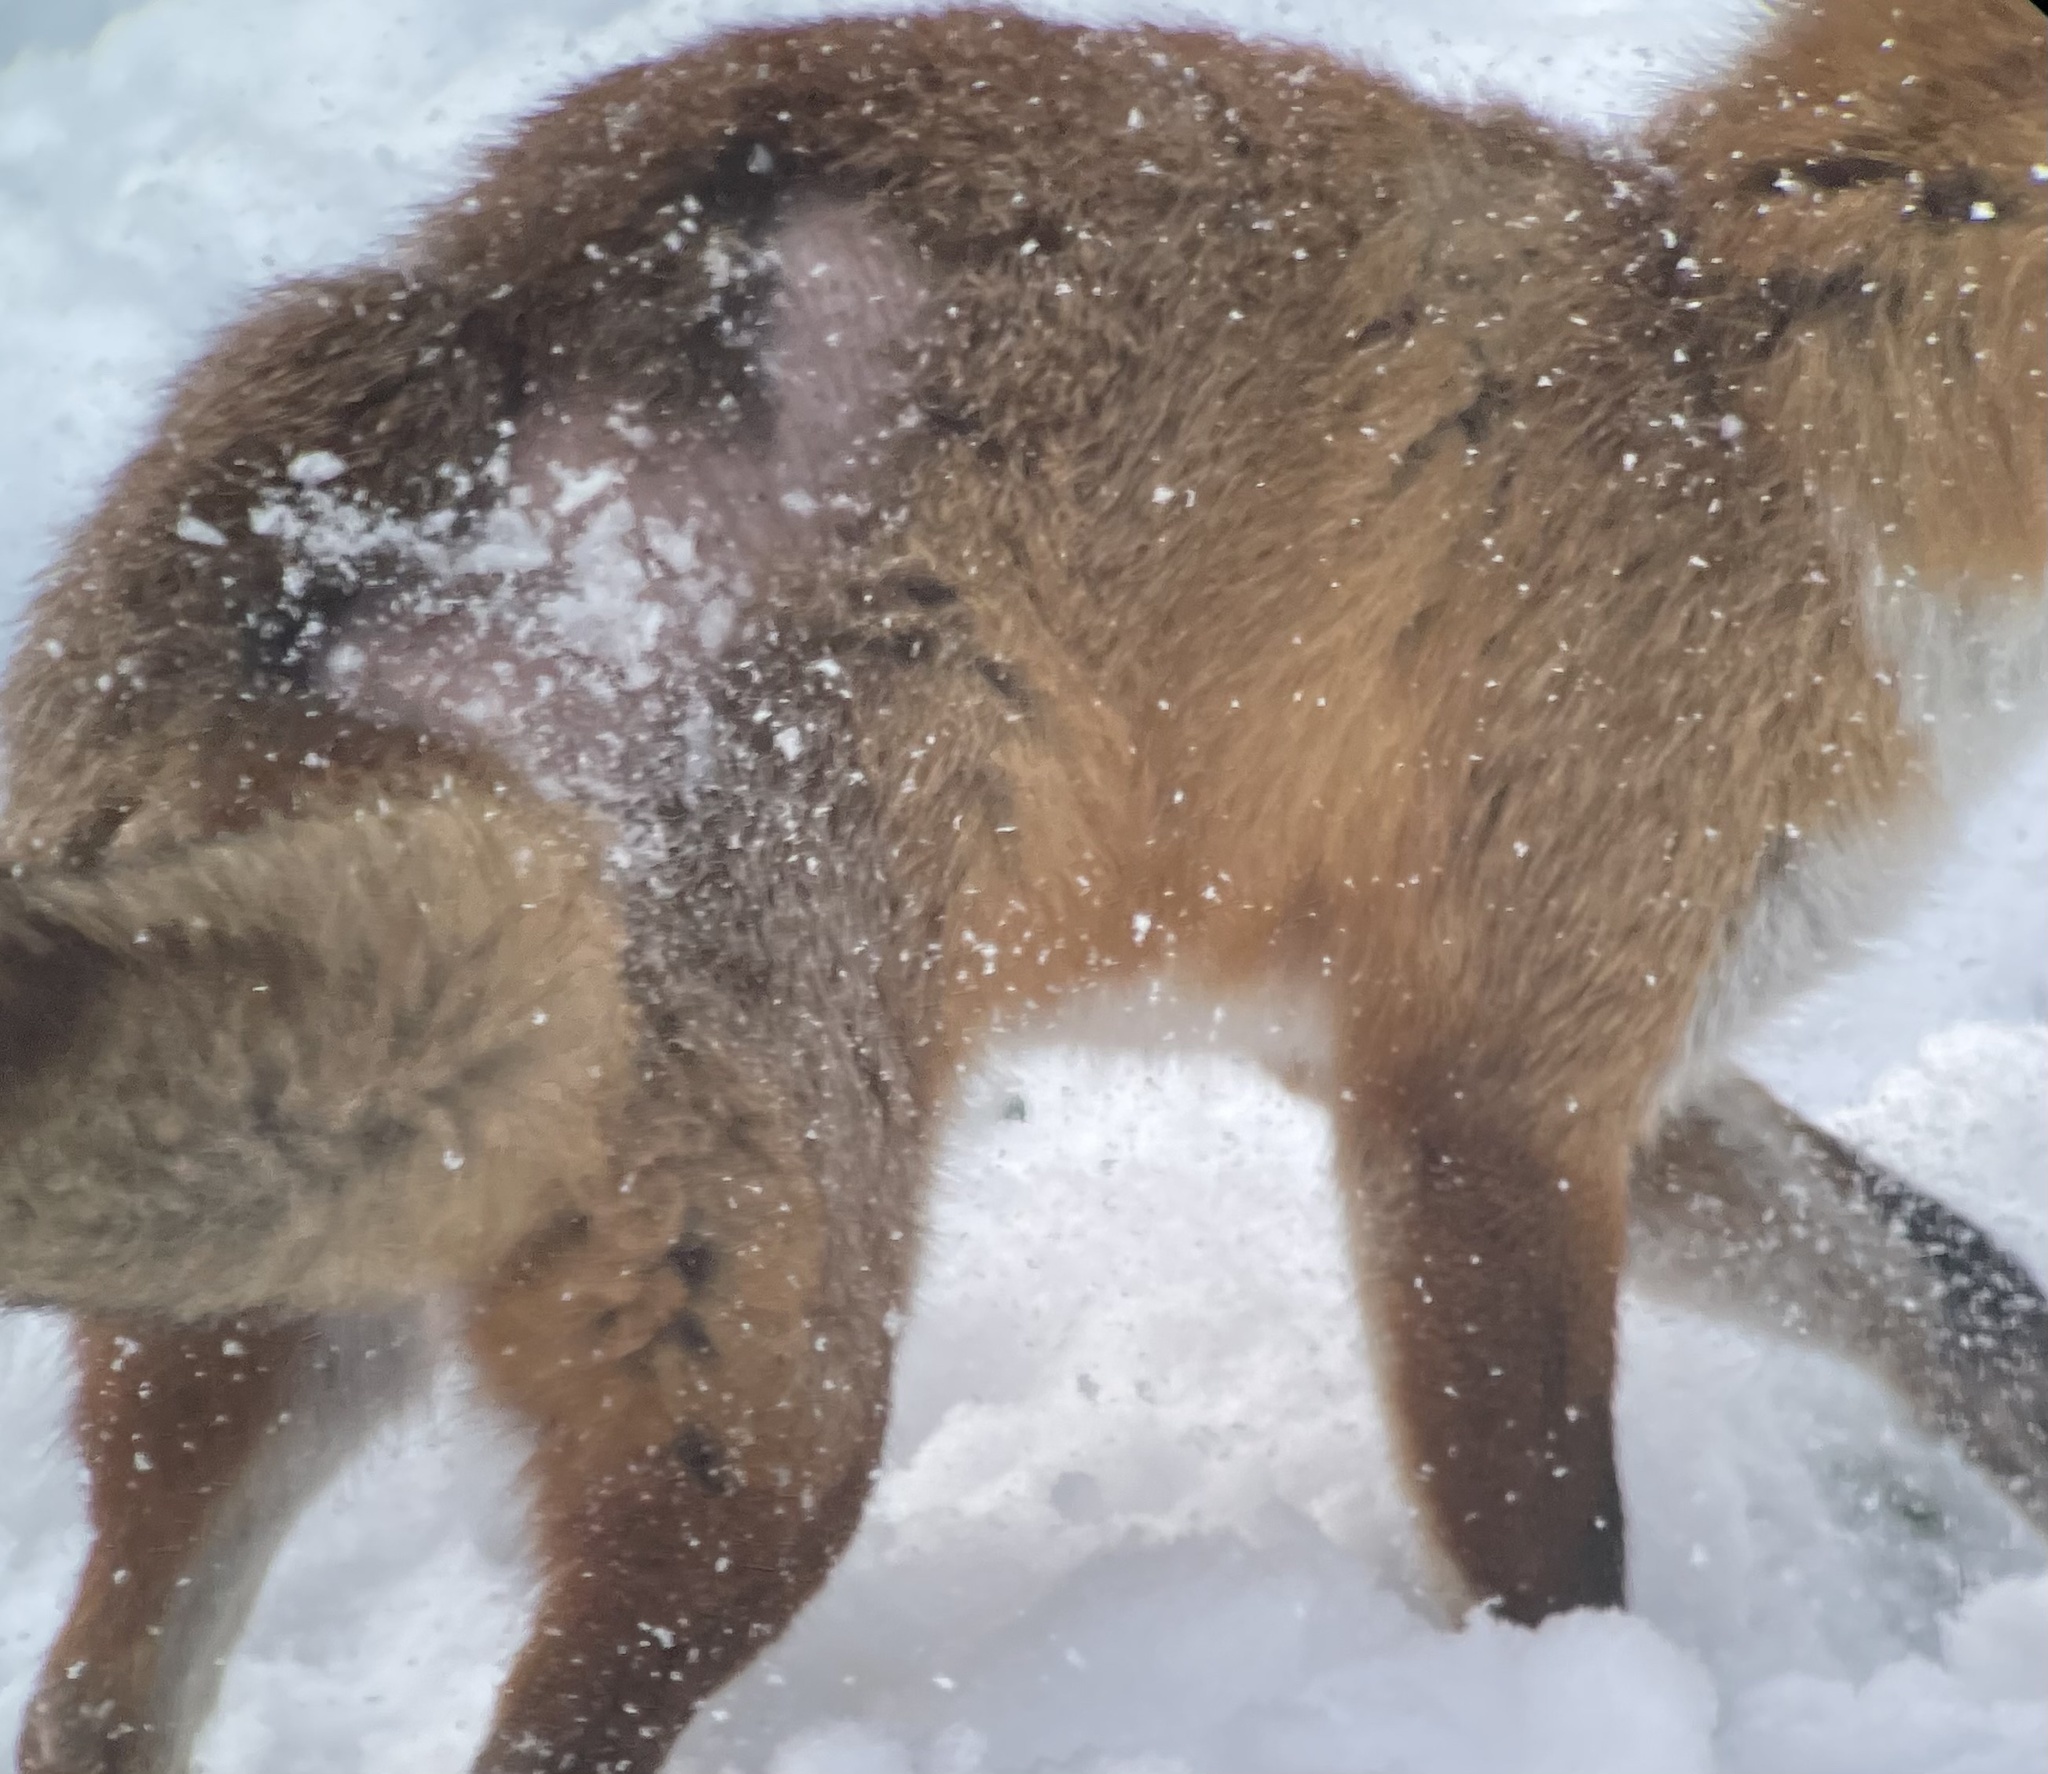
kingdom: Animalia
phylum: Chordata
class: Mammalia
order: Carnivora
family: Canidae
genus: Vulpes
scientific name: Vulpes vulpes
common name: Red fox
